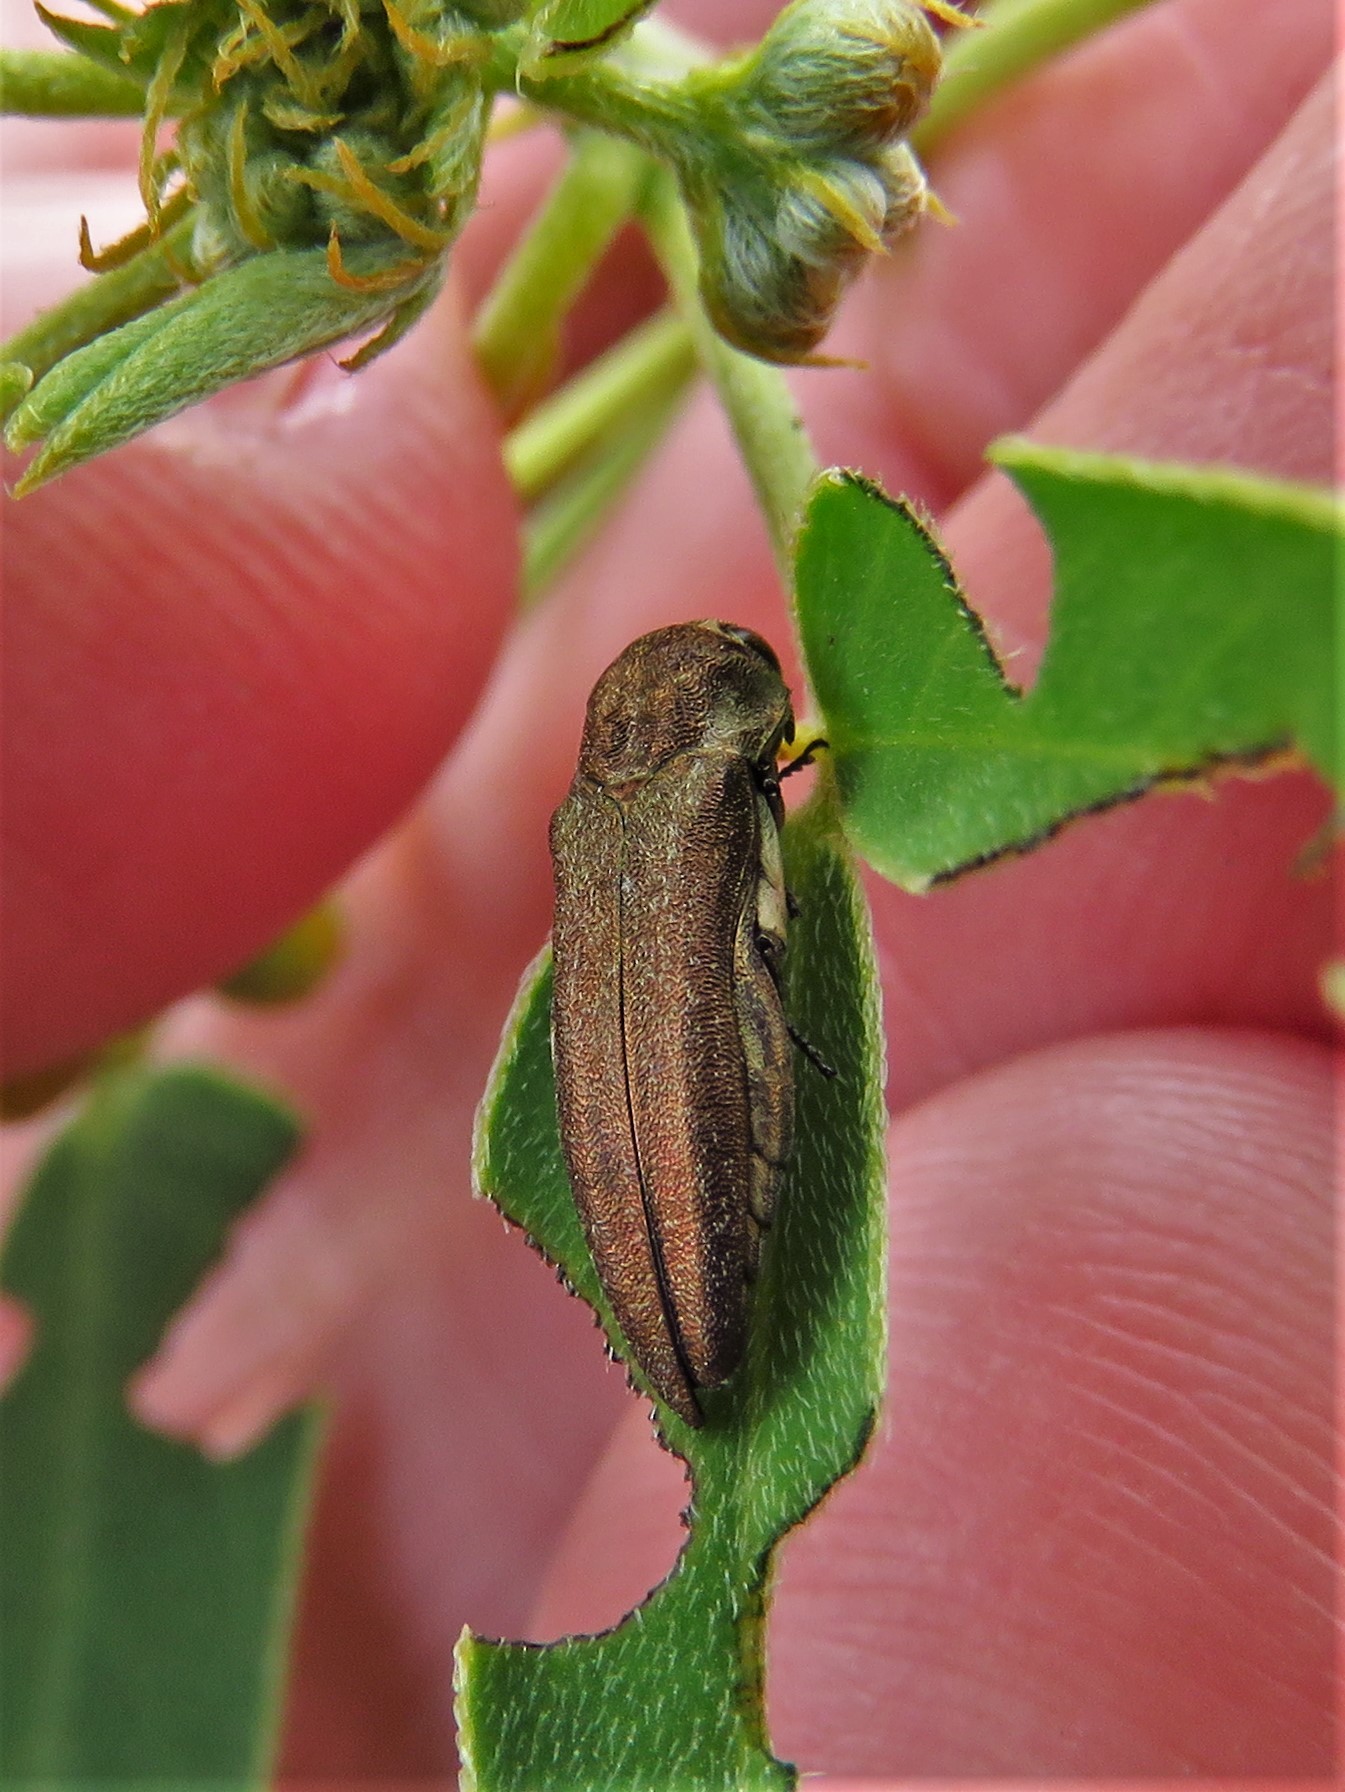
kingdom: Animalia
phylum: Arthropoda
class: Insecta
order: Coleoptera
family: Buprestidae
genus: Agrilus
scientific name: Agrilus obtusus
